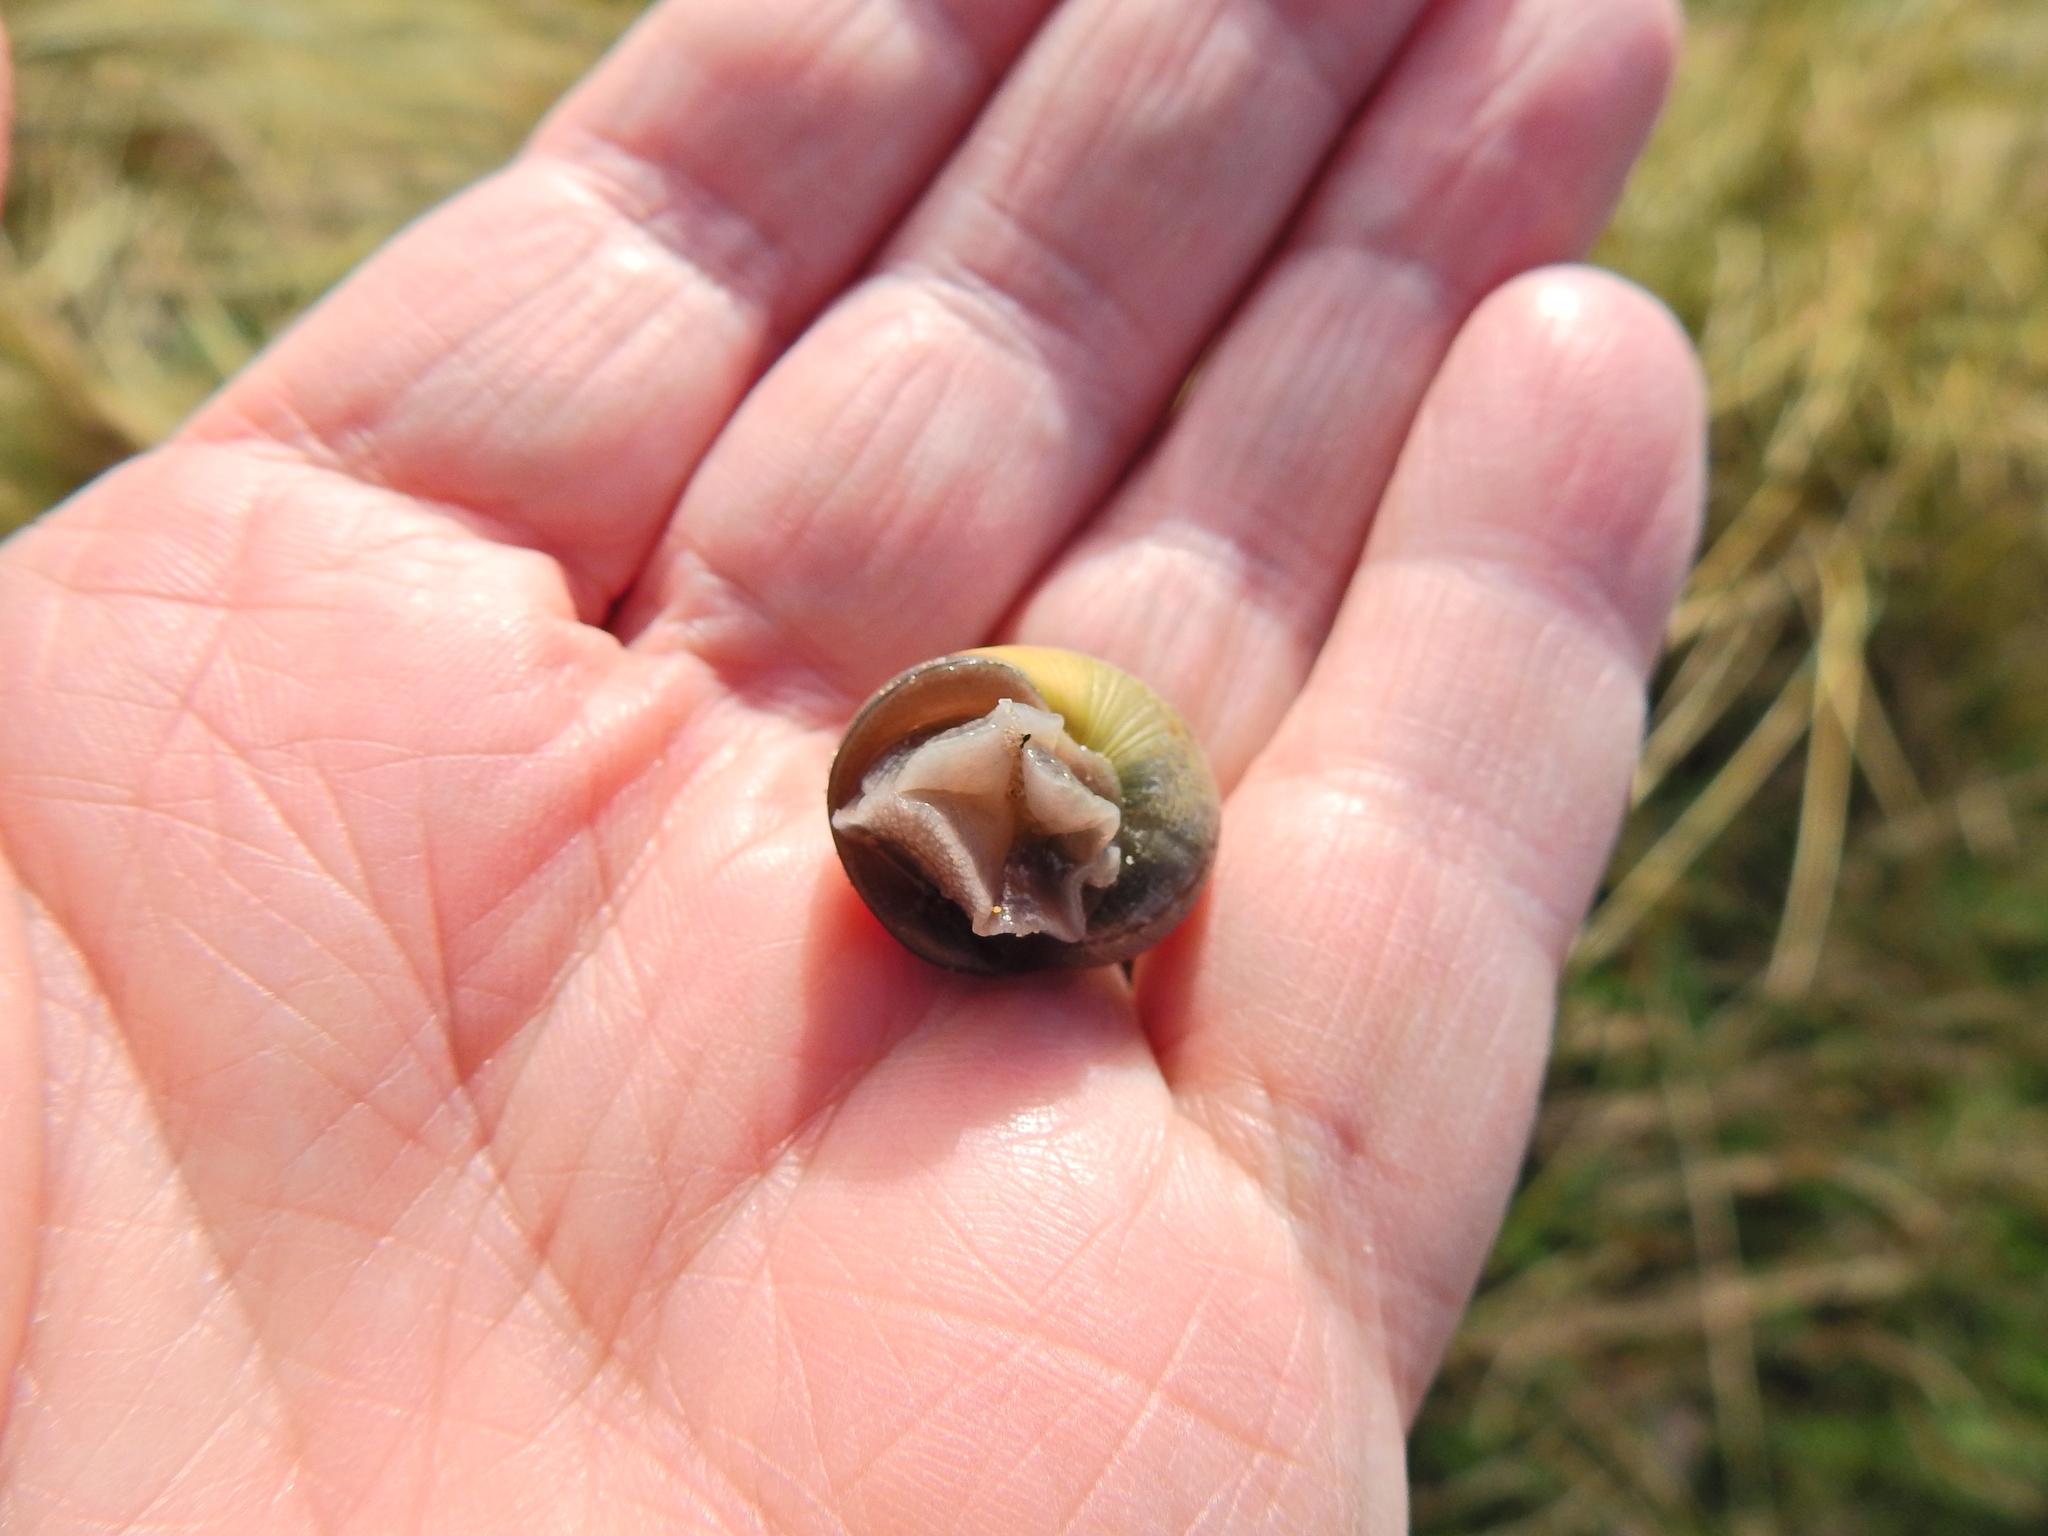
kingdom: Animalia
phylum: Mollusca
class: Gastropoda
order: Stylommatophora
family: Helicidae
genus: Cornu
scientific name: Cornu aspersum
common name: Brown garden snail
